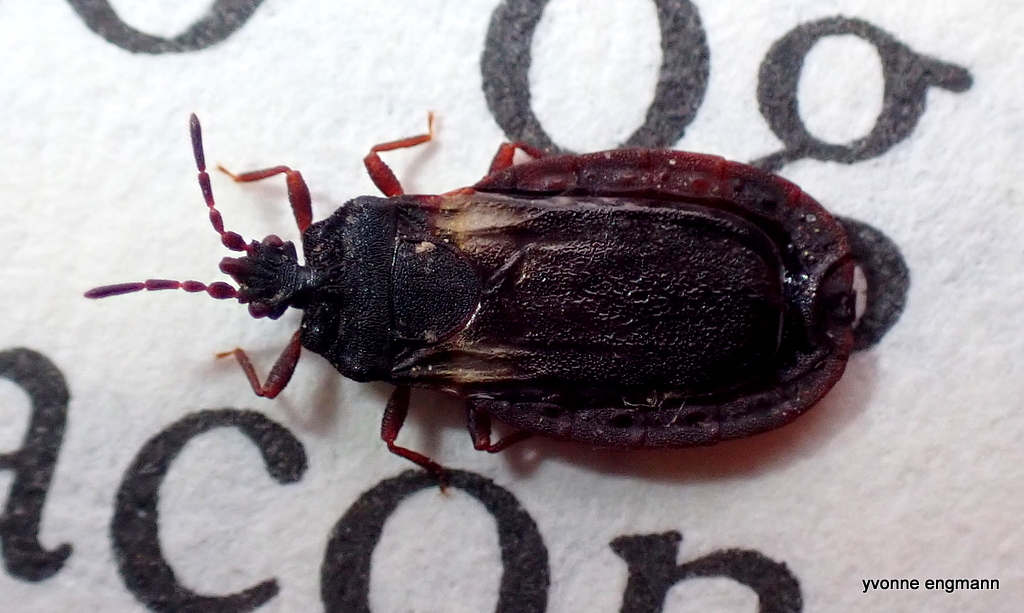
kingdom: Animalia
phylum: Arthropoda
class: Insecta
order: Hemiptera
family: Aradidae
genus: Aneurus
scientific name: Aneurus avenius
